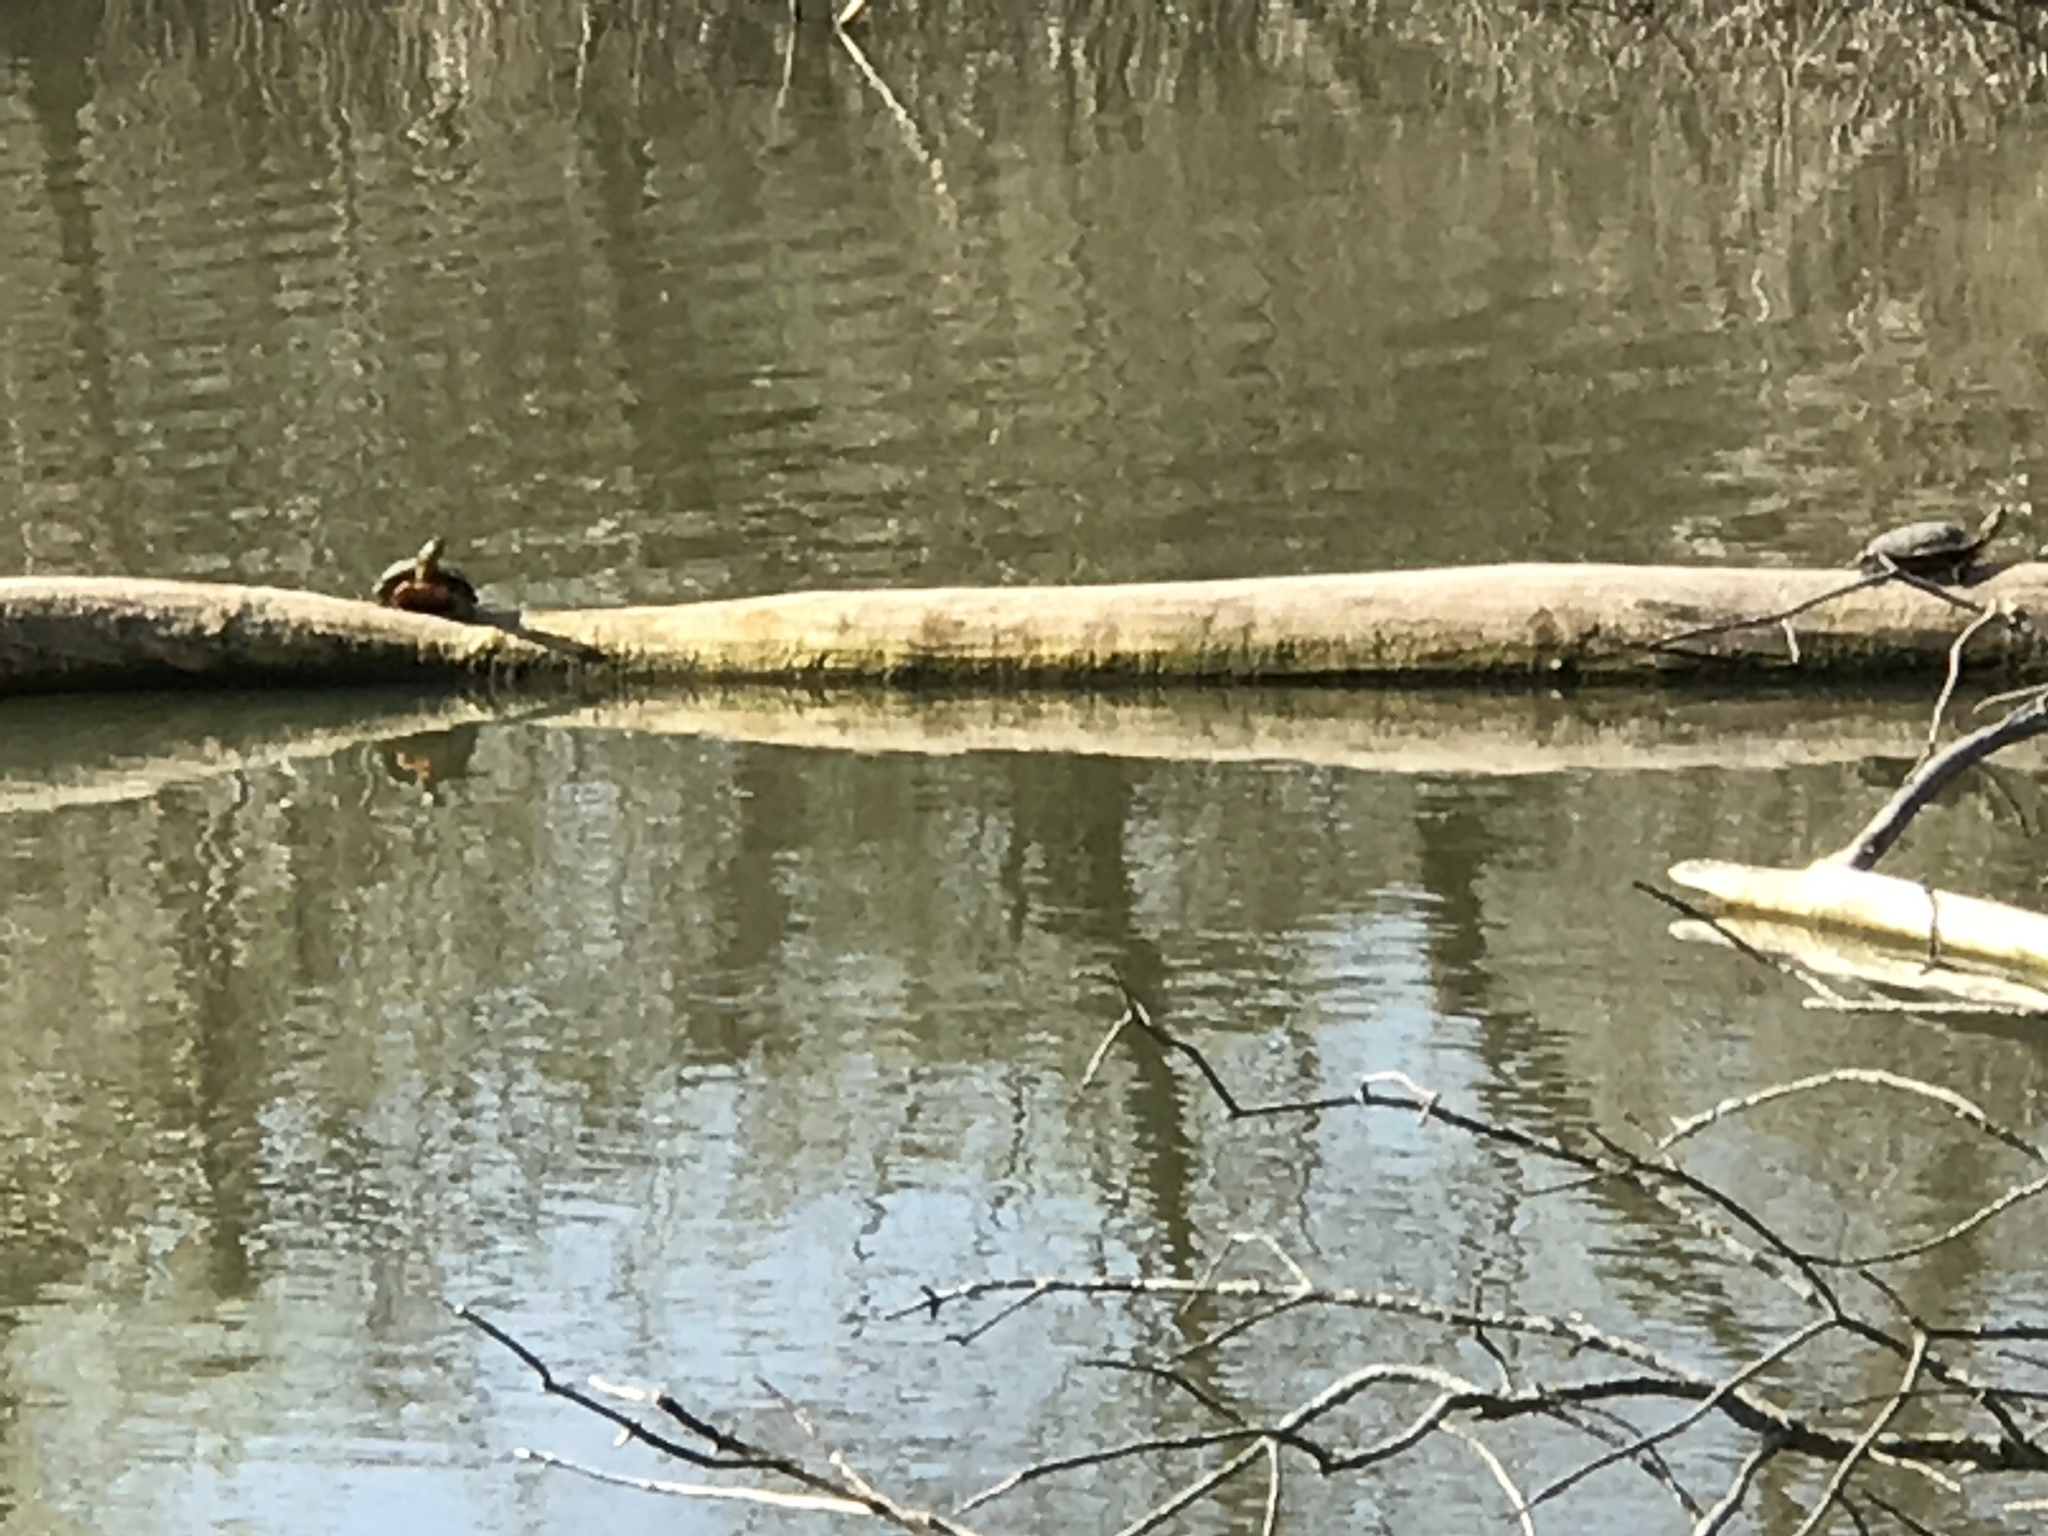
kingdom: Animalia
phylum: Chordata
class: Testudines
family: Emydidae
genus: Chrysemys
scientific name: Chrysemys picta
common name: Painted turtle
